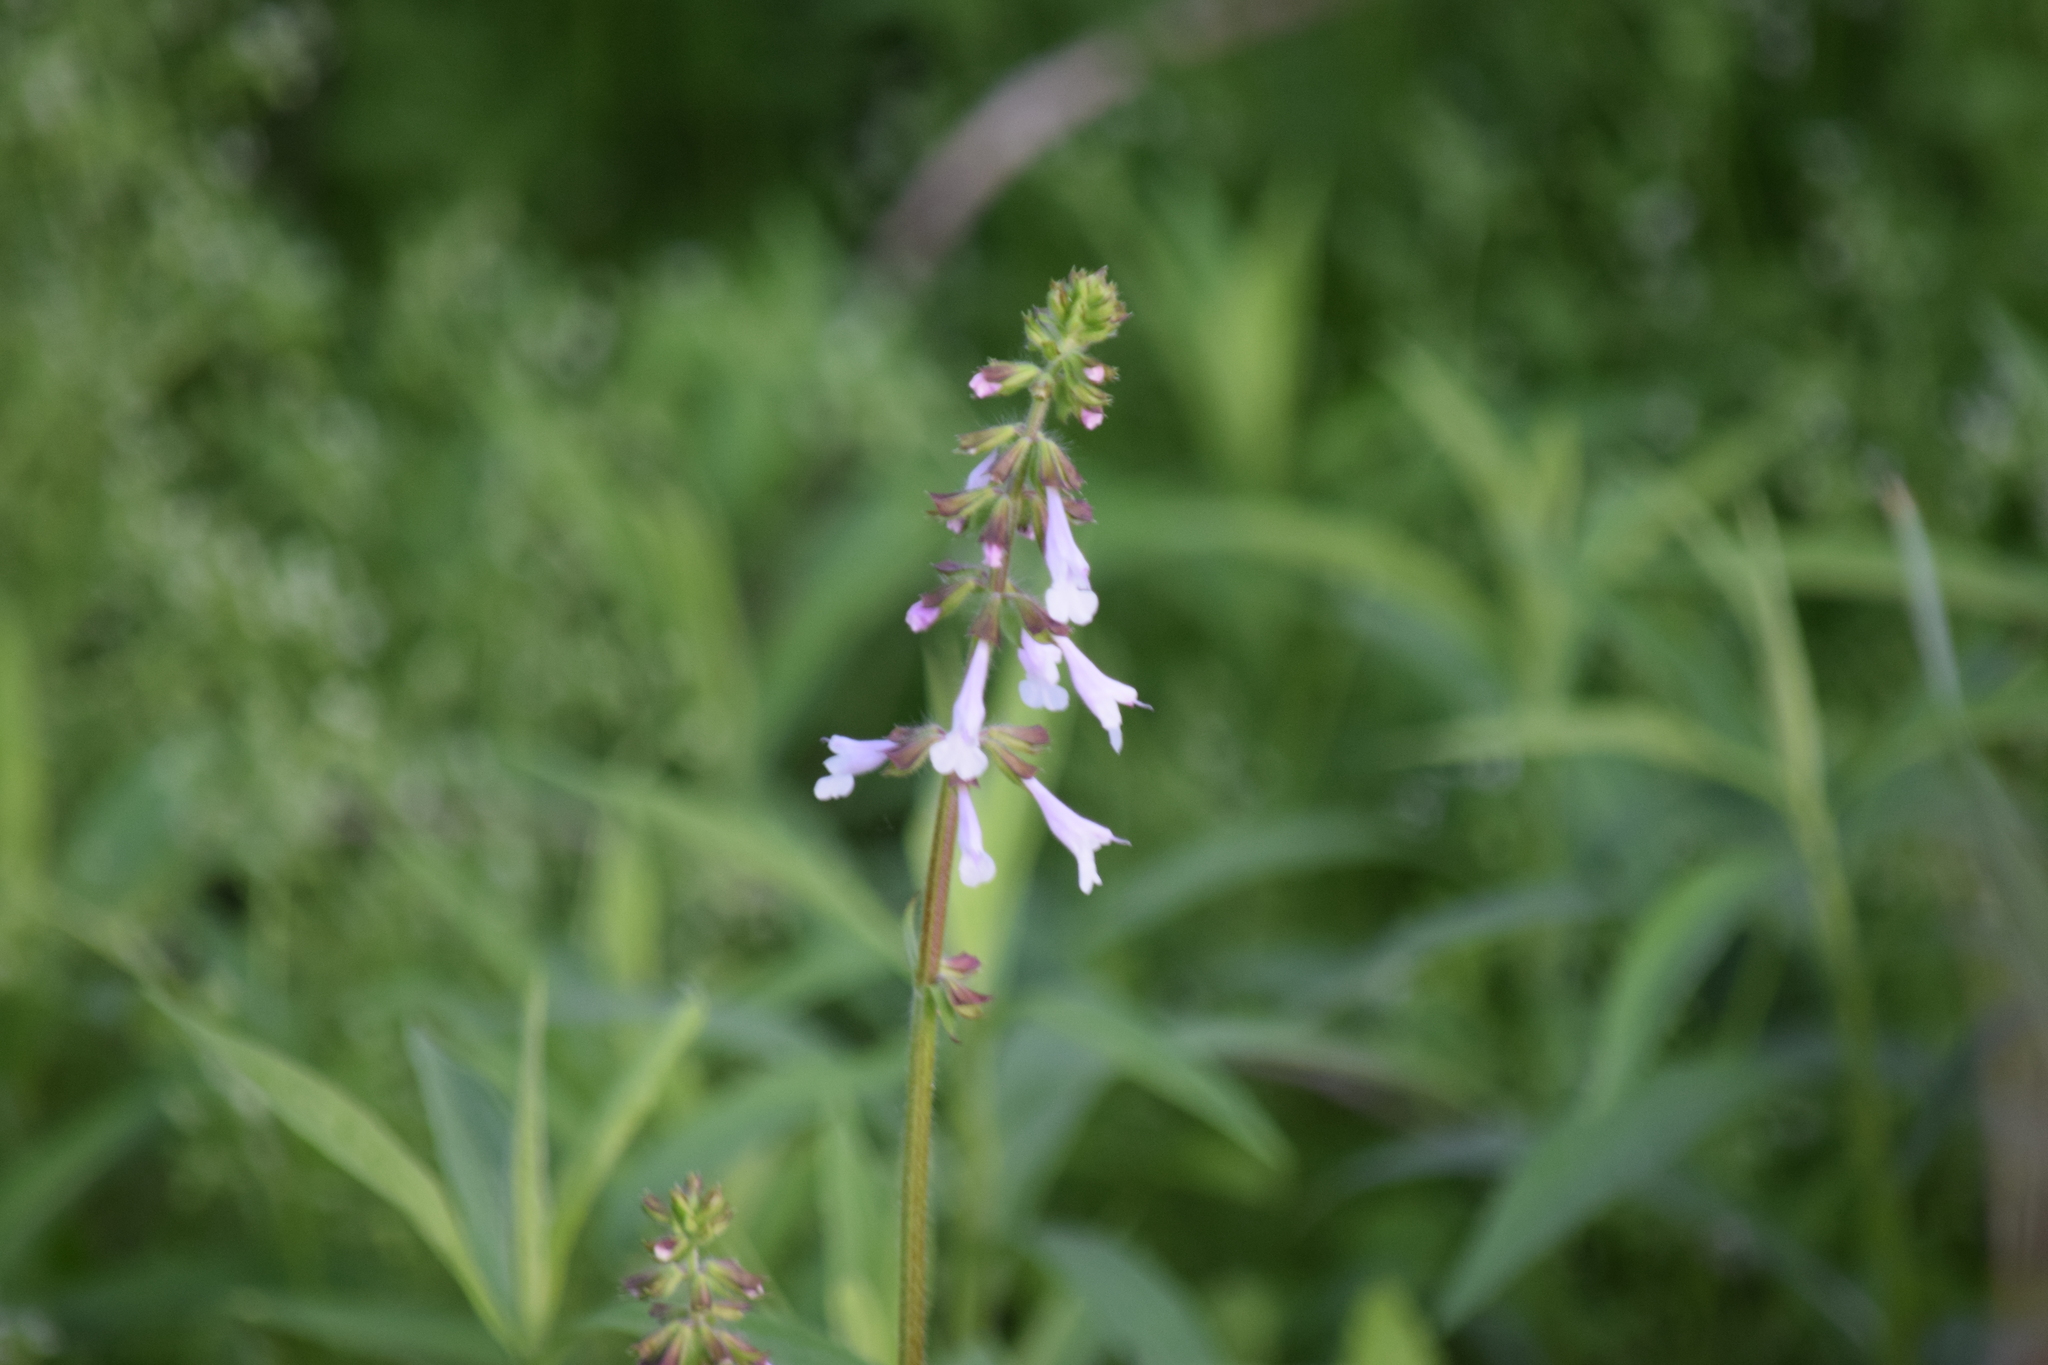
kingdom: Plantae
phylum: Tracheophyta
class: Magnoliopsida
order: Lamiales
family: Lamiaceae
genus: Salvia
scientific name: Salvia lyrata
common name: Cancerweed
